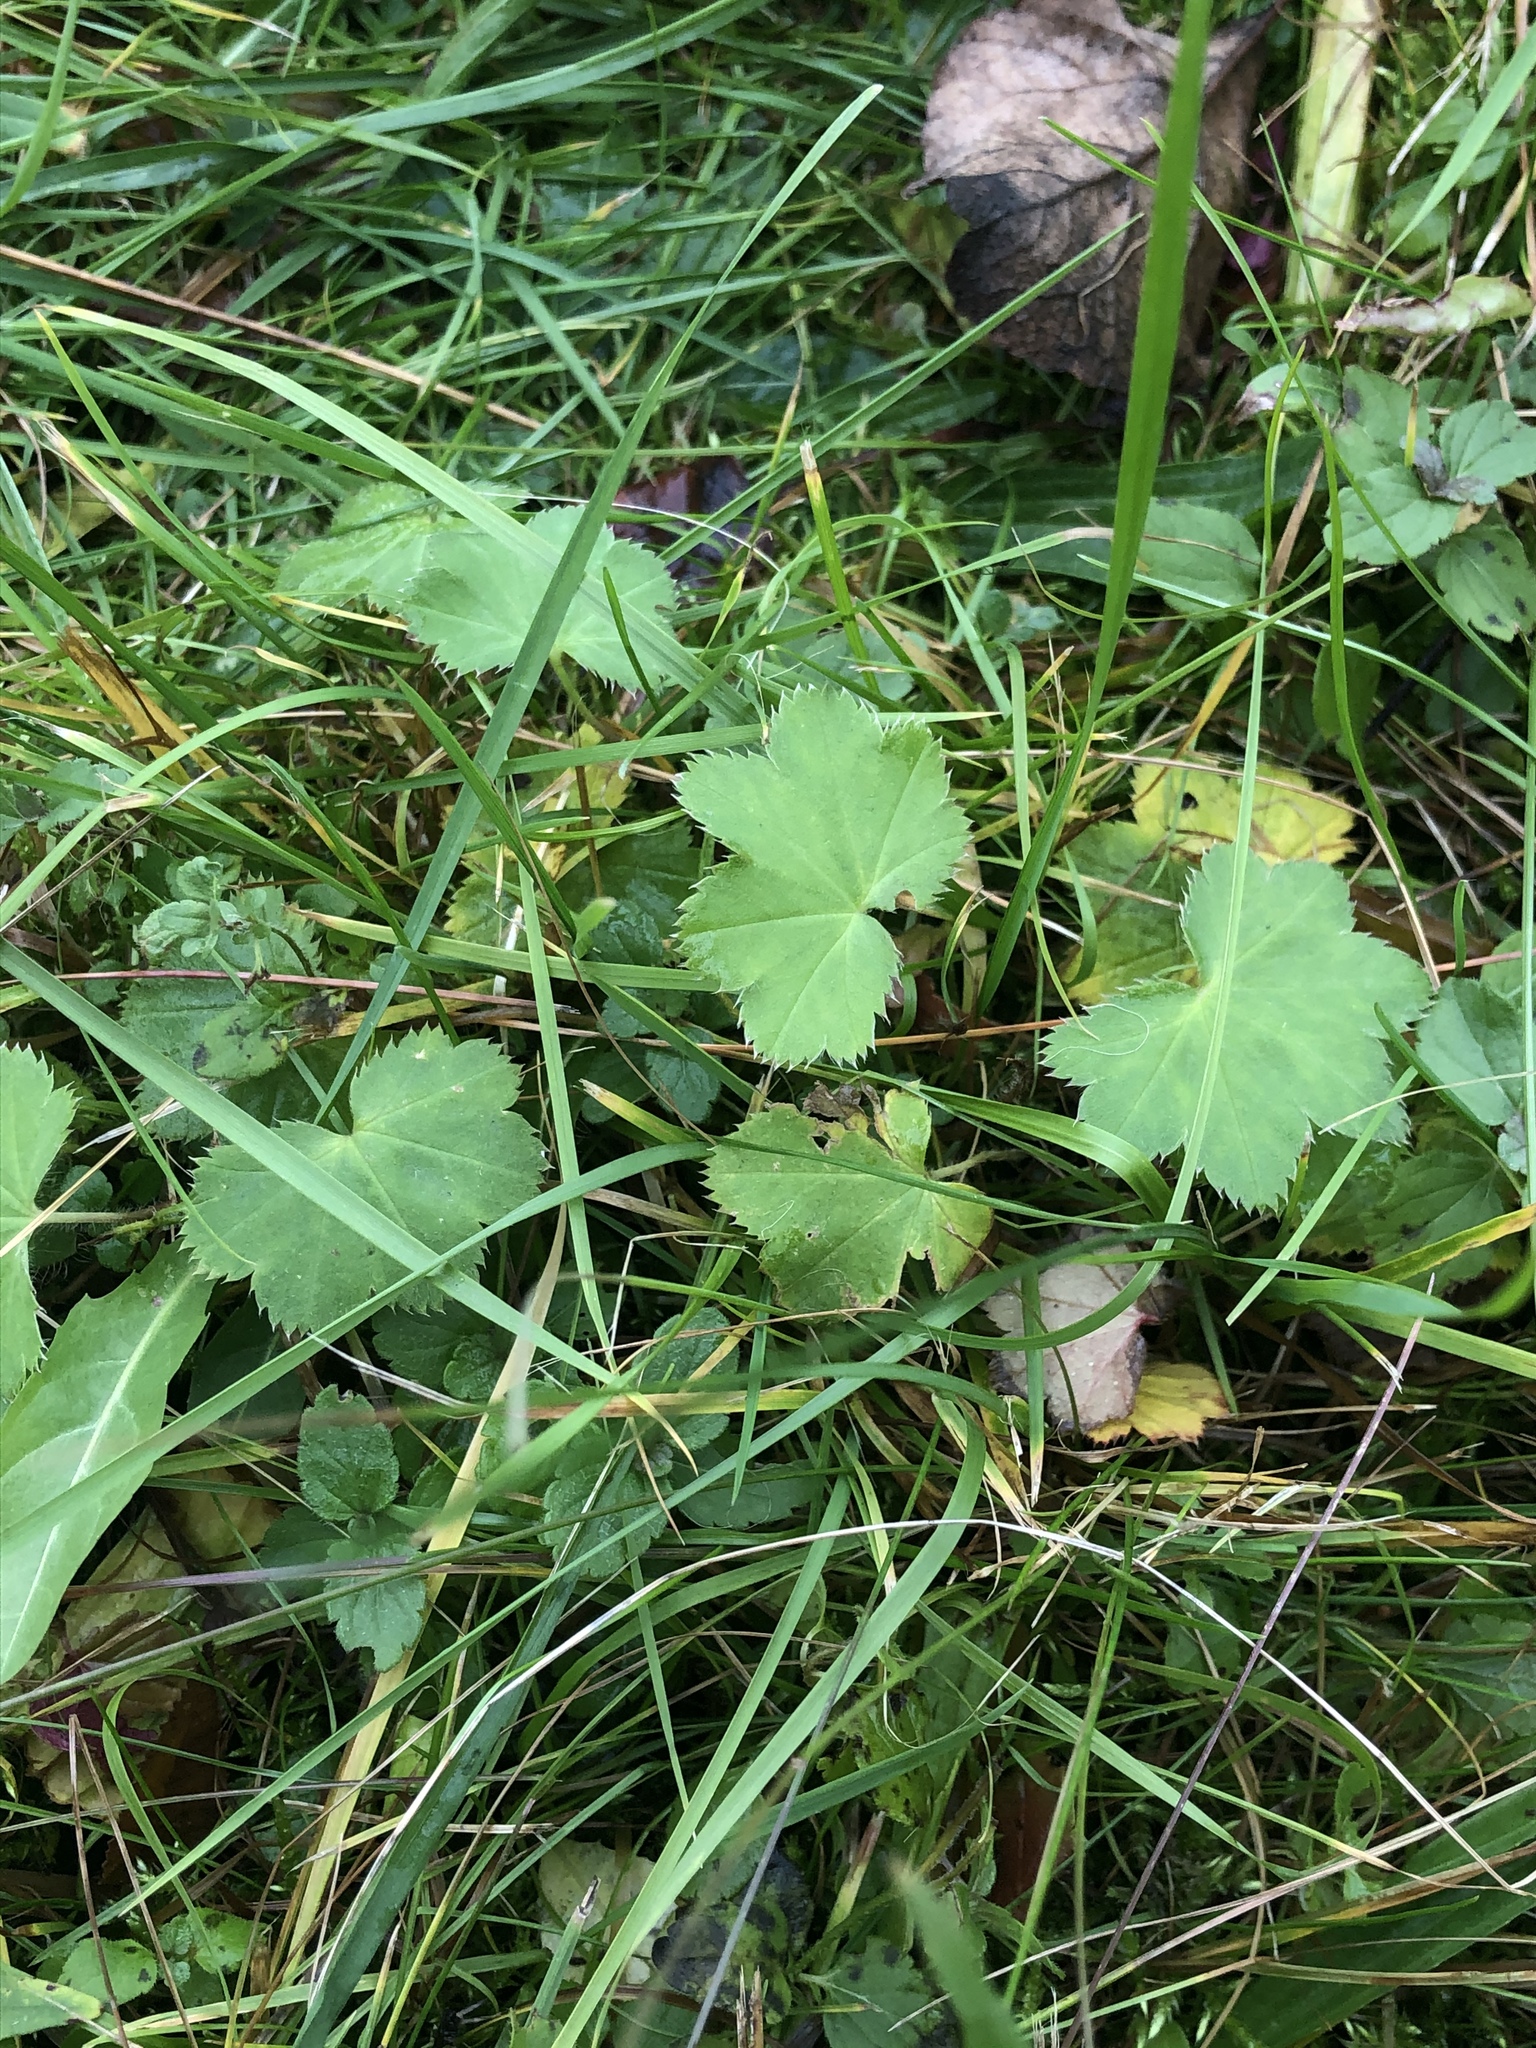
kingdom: Plantae
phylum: Tracheophyta
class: Magnoliopsida
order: Rosales
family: Rosaceae
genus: Alchemilla
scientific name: Alchemilla
